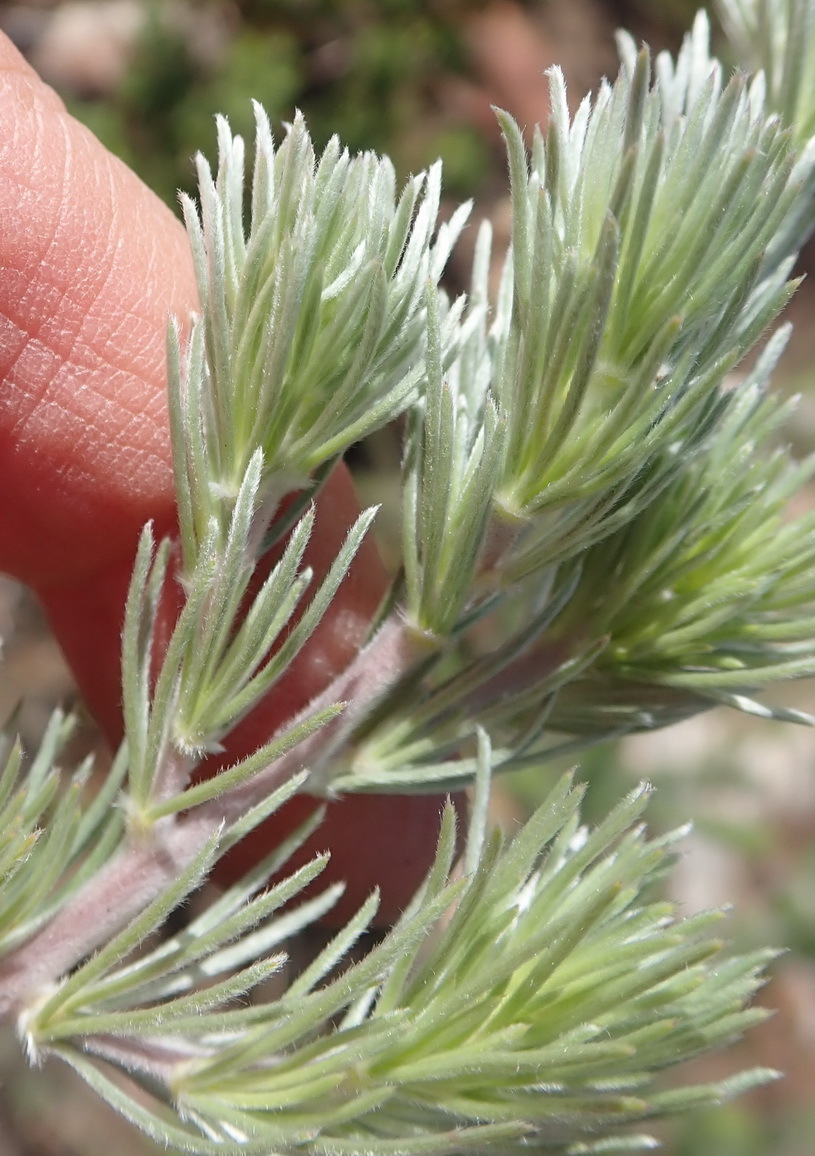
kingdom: Plantae
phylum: Tracheophyta
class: Magnoliopsida
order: Fabales
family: Fabaceae
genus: Aspalathus
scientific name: Aspalathus setacea
